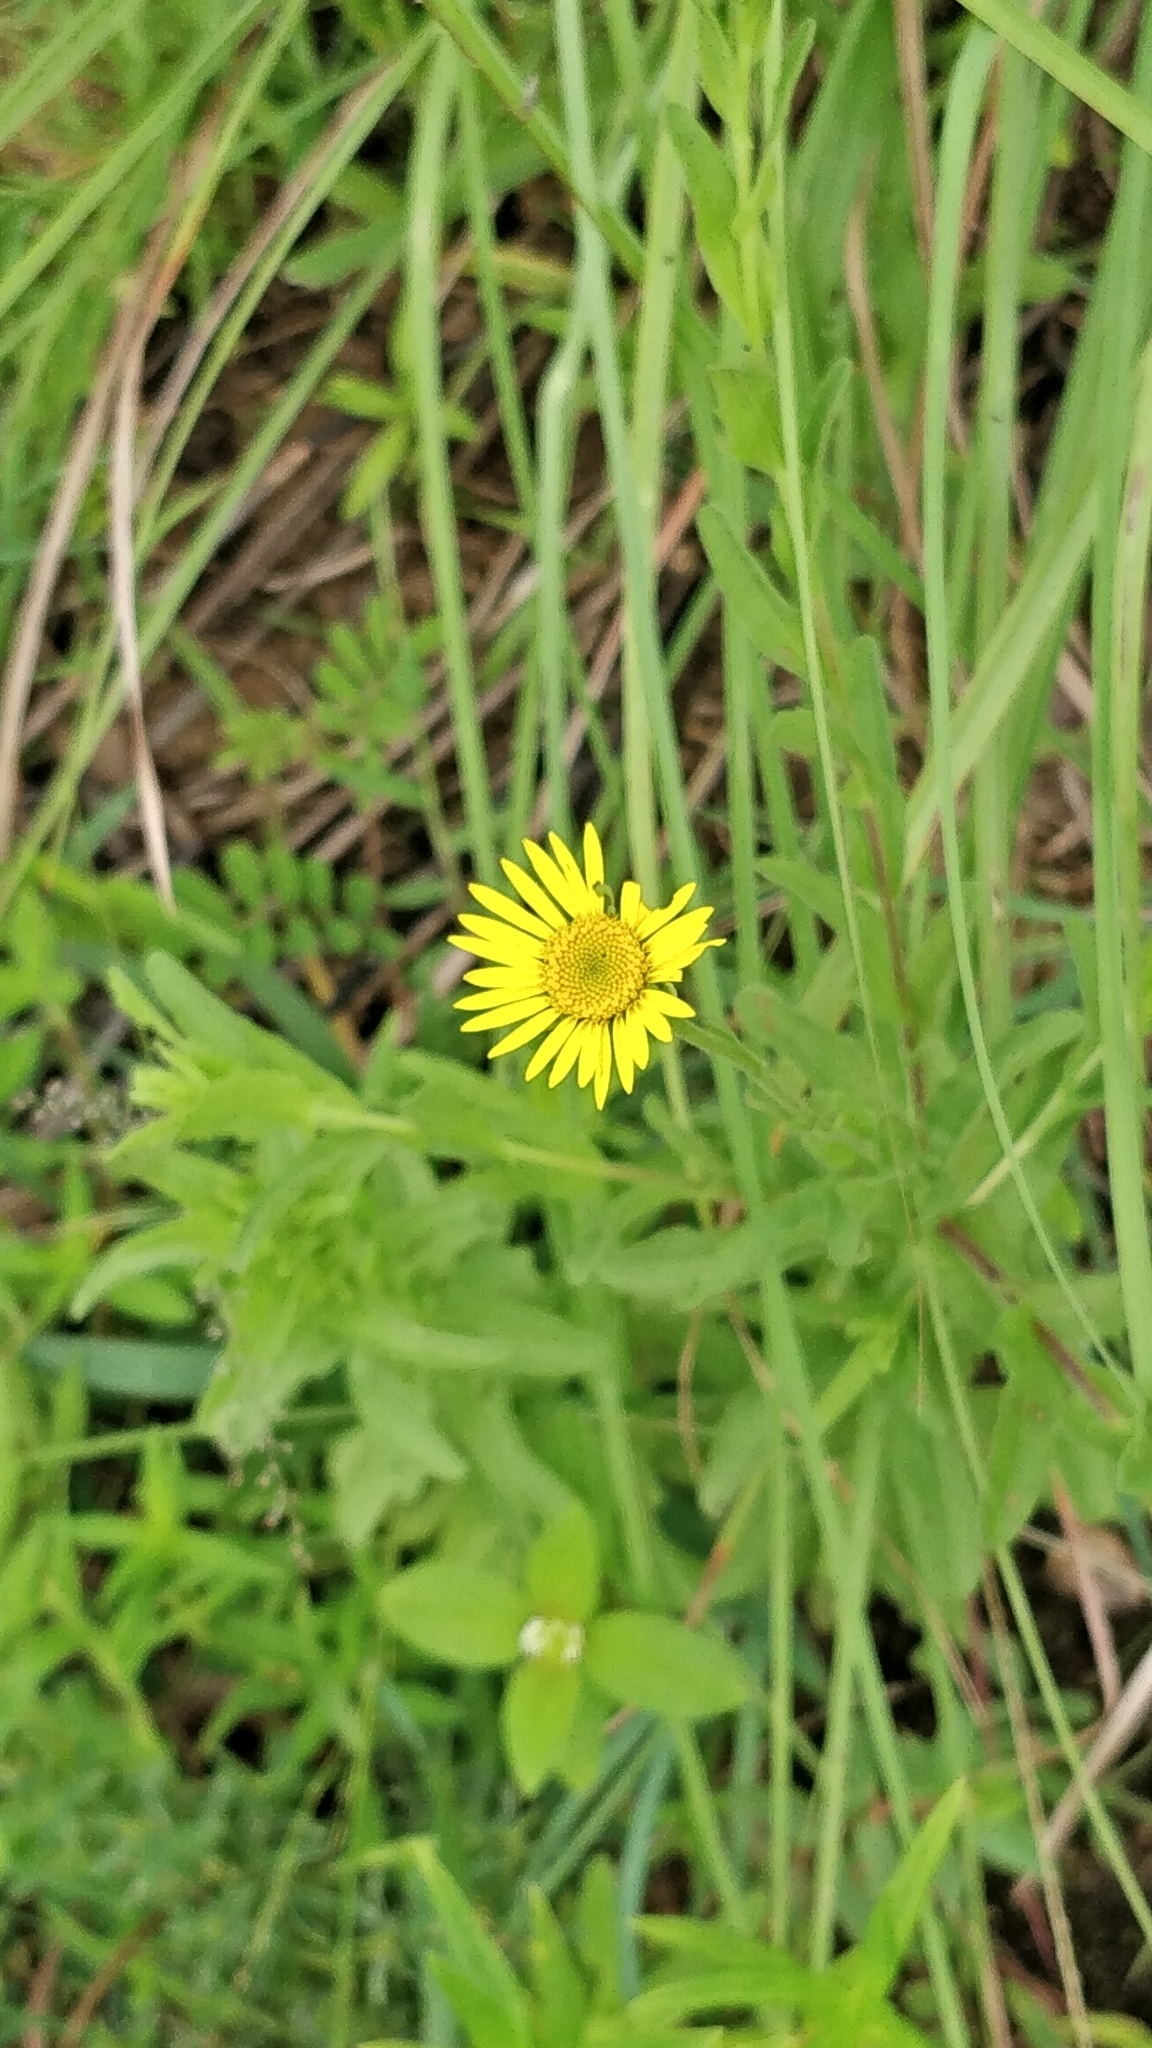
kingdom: Plantae
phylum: Tracheophyta
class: Magnoliopsida
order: Asterales
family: Asteraceae
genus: Pulicaria
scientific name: Pulicaria wightiana
